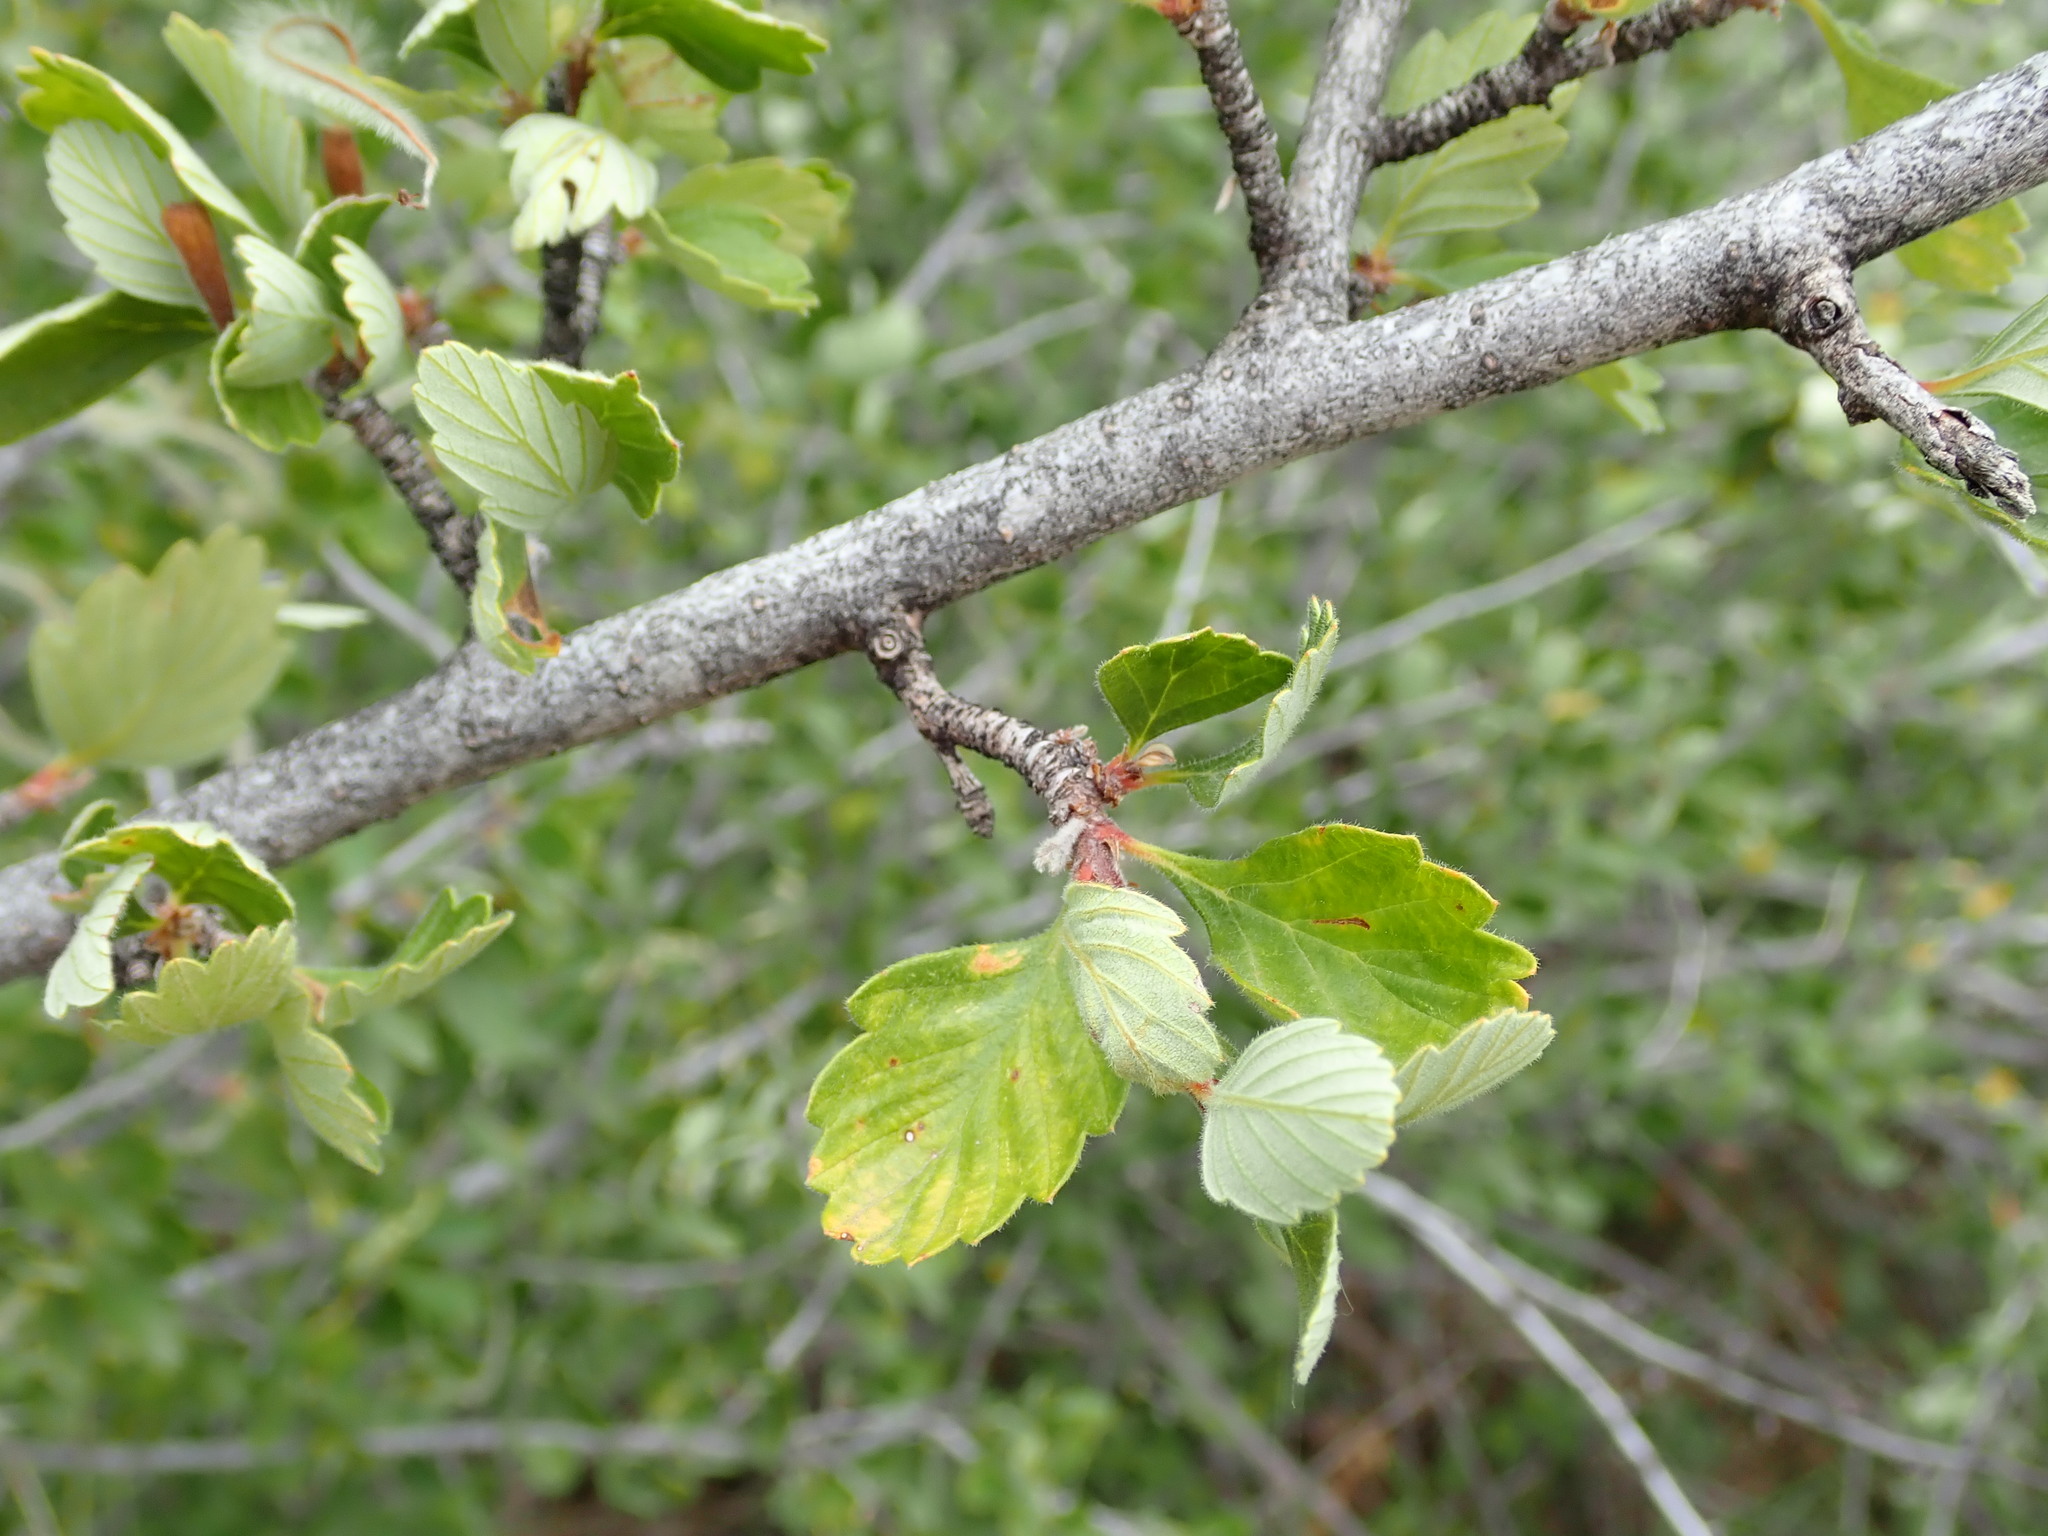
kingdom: Plantae
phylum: Tracheophyta
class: Magnoliopsida
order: Rosales
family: Rosaceae
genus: Cercocarpus
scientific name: Cercocarpus montanus
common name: Alder-leaf cercocarpus
